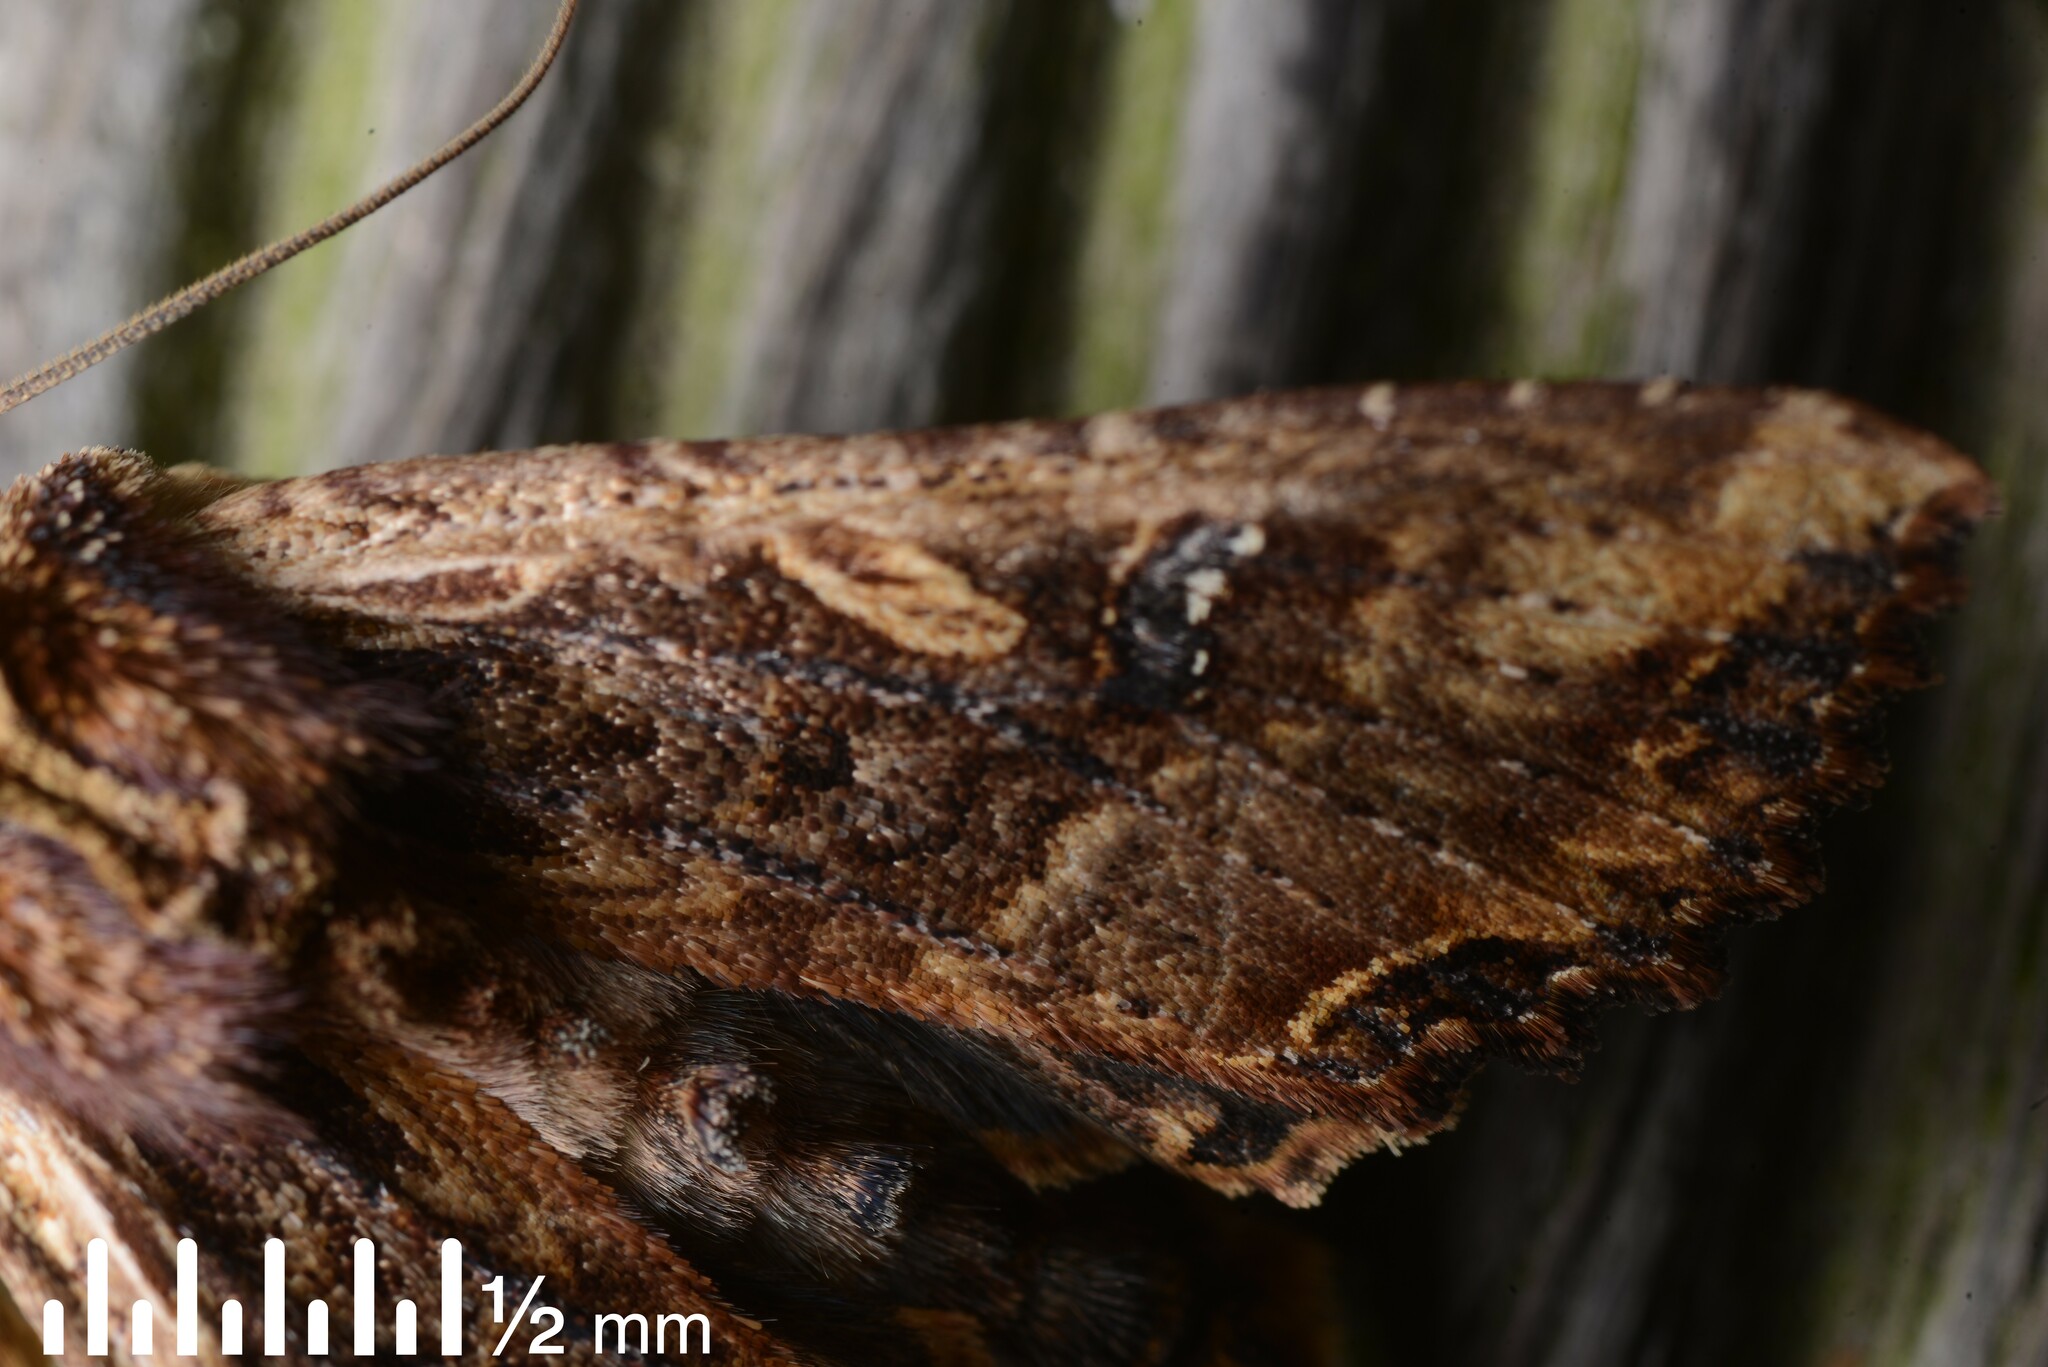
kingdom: Animalia
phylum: Arthropoda
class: Insecta
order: Lepidoptera
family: Noctuidae
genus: Meterana
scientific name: Meterana stipata
